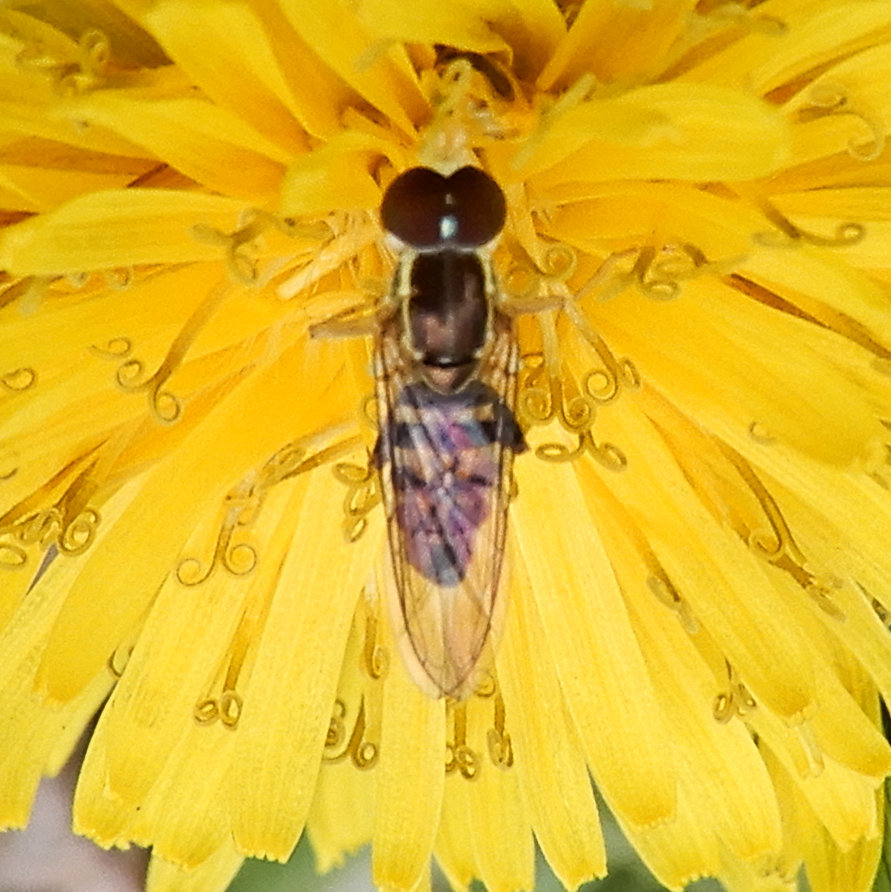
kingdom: Animalia
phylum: Arthropoda
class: Insecta
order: Diptera
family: Syrphidae
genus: Toxomerus
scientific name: Toxomerus geminatus
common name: Eastern calligrapher
